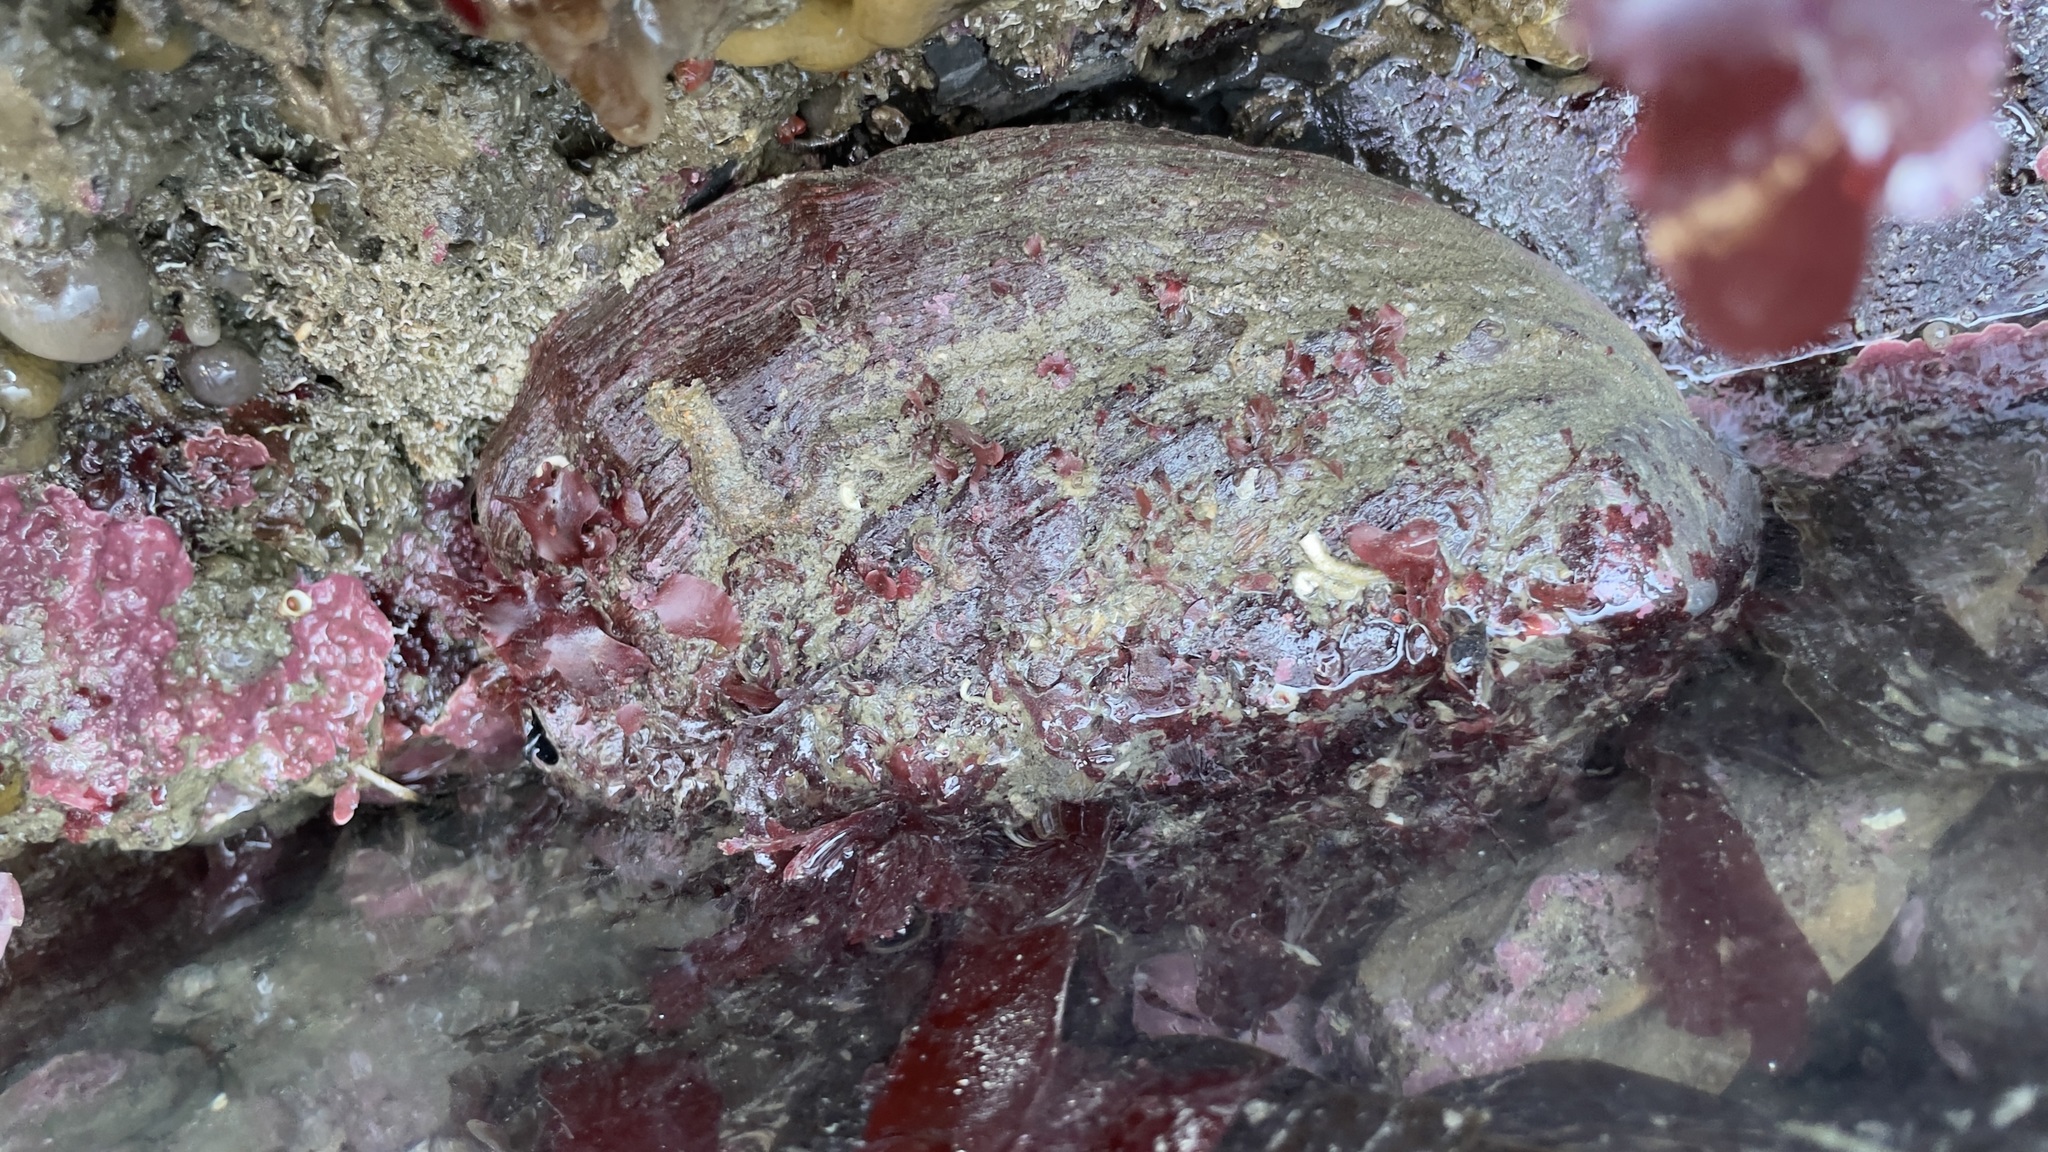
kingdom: Animalia
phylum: Mollusca
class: Gastropoda
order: Lepetellida
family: Haliotidae
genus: Haliotis
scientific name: Haliotis rufescens
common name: Red abalone
